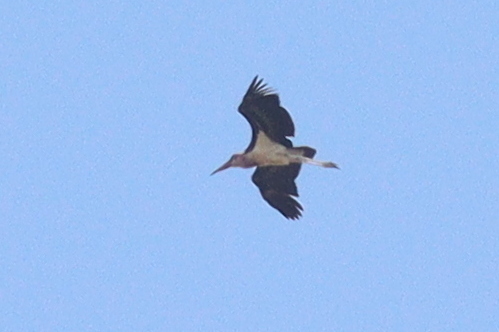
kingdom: Animalia
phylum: Chordata
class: Aves
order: Ciconiiformes
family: Ciconiidae
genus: Leptoptilos
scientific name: Leptoptilos crumenifer
